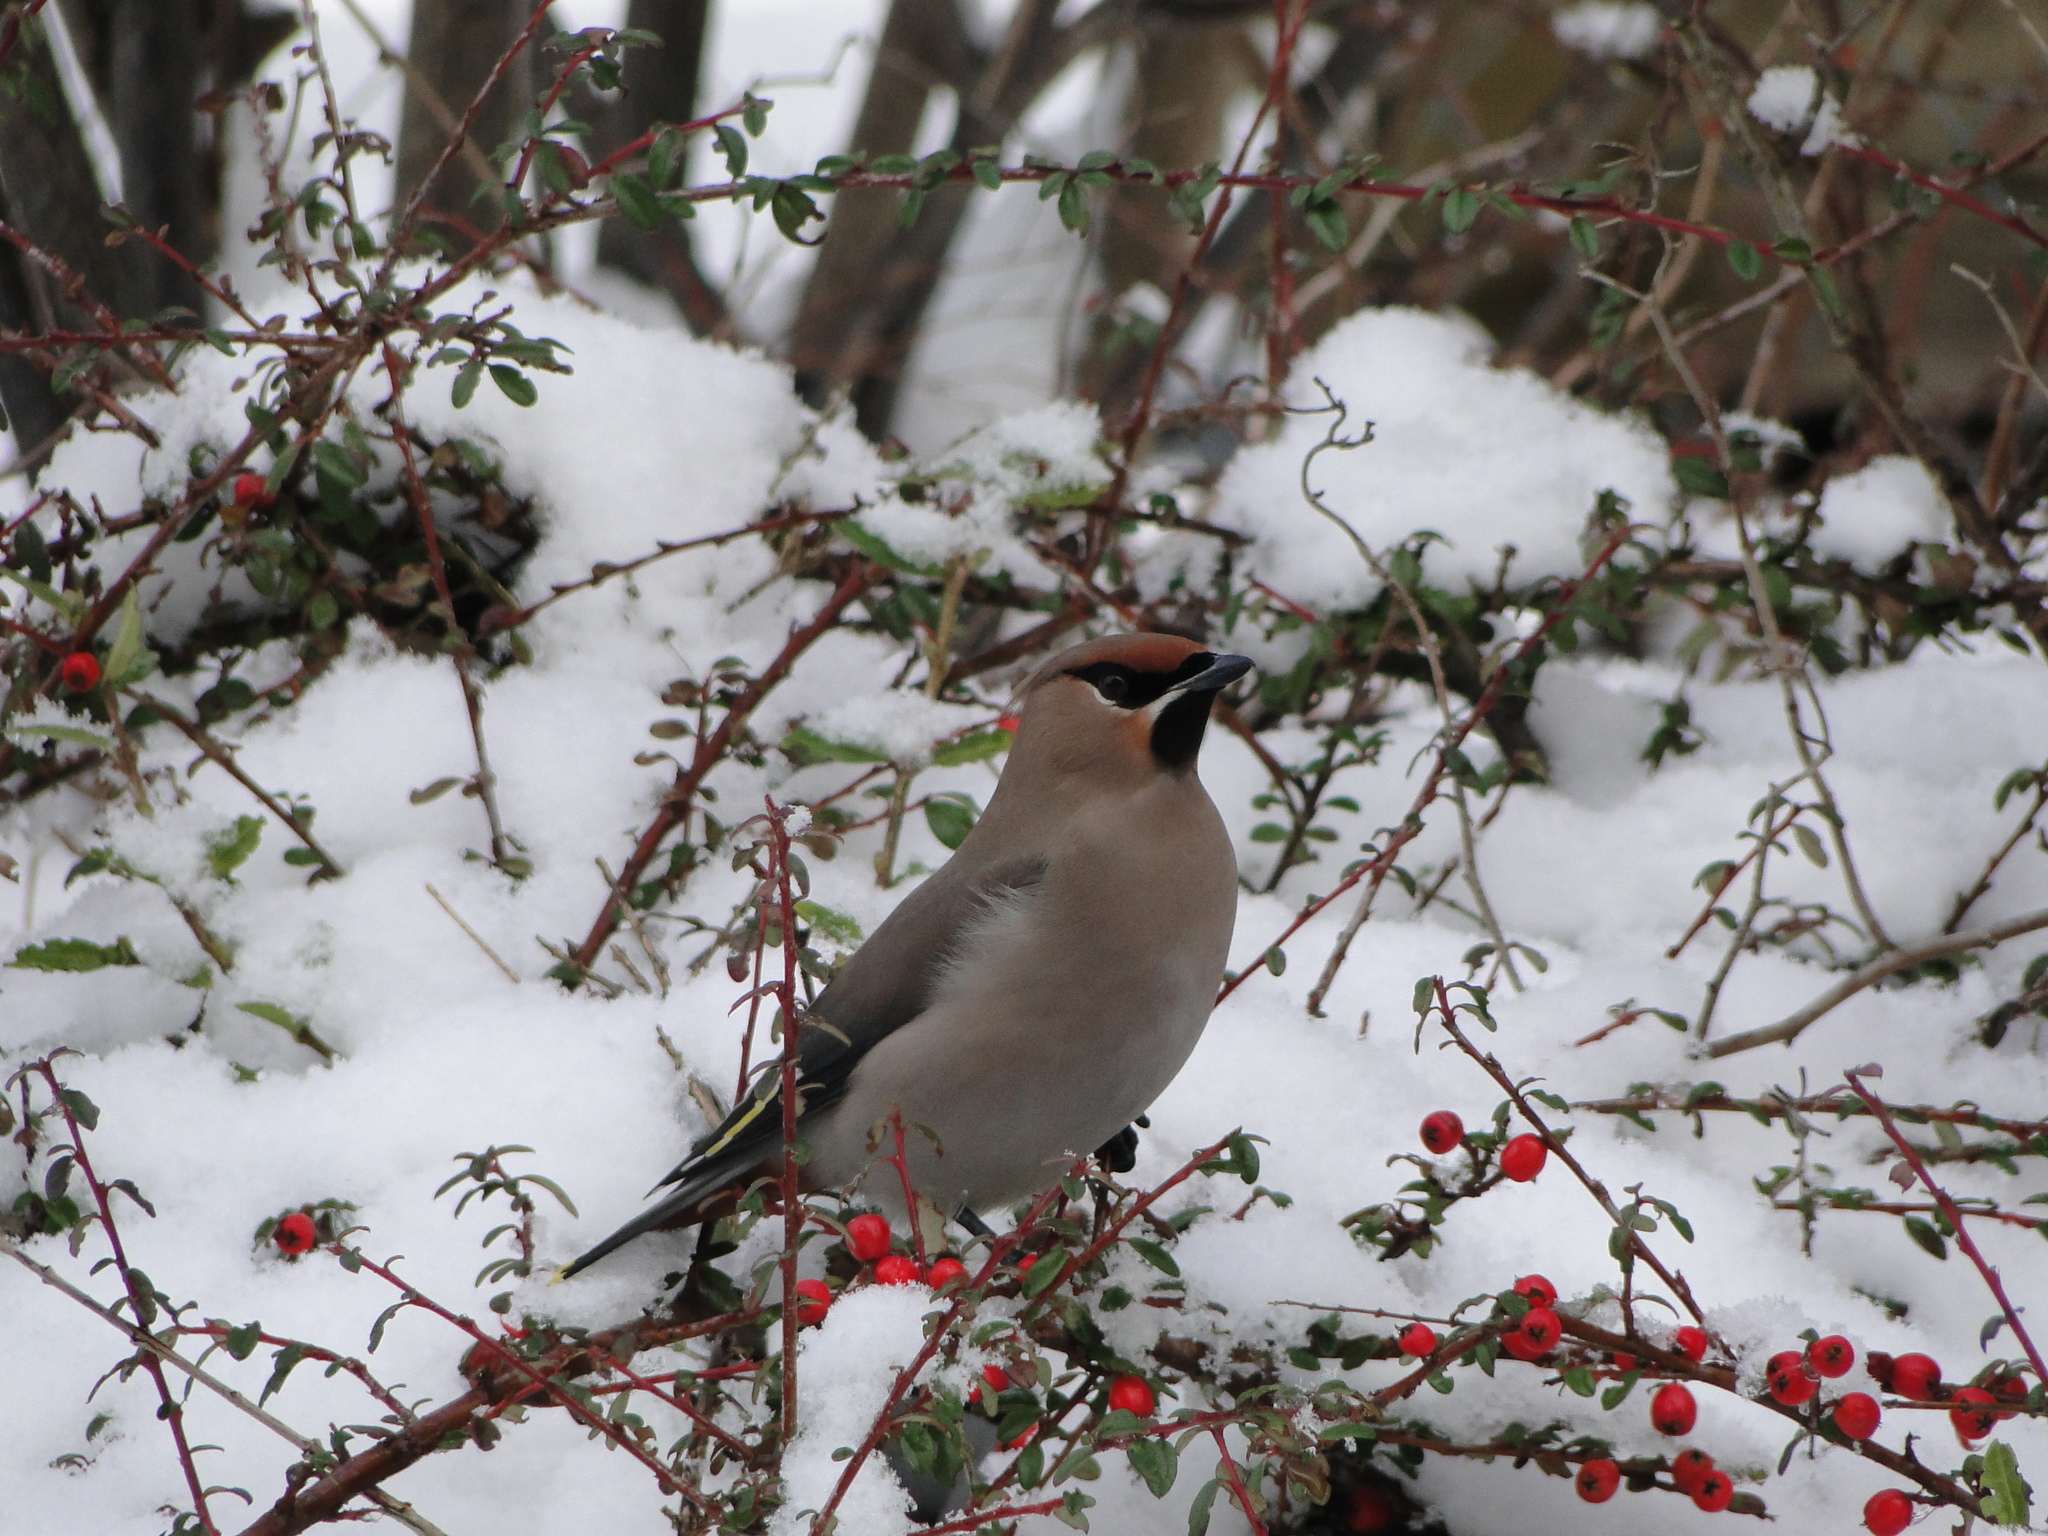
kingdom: Animalia
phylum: Chordata
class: Aves
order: Passeriformes
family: Bombycillidae
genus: Bombycilla
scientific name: Bombycilla garrulus
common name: Bohemian waxwing
